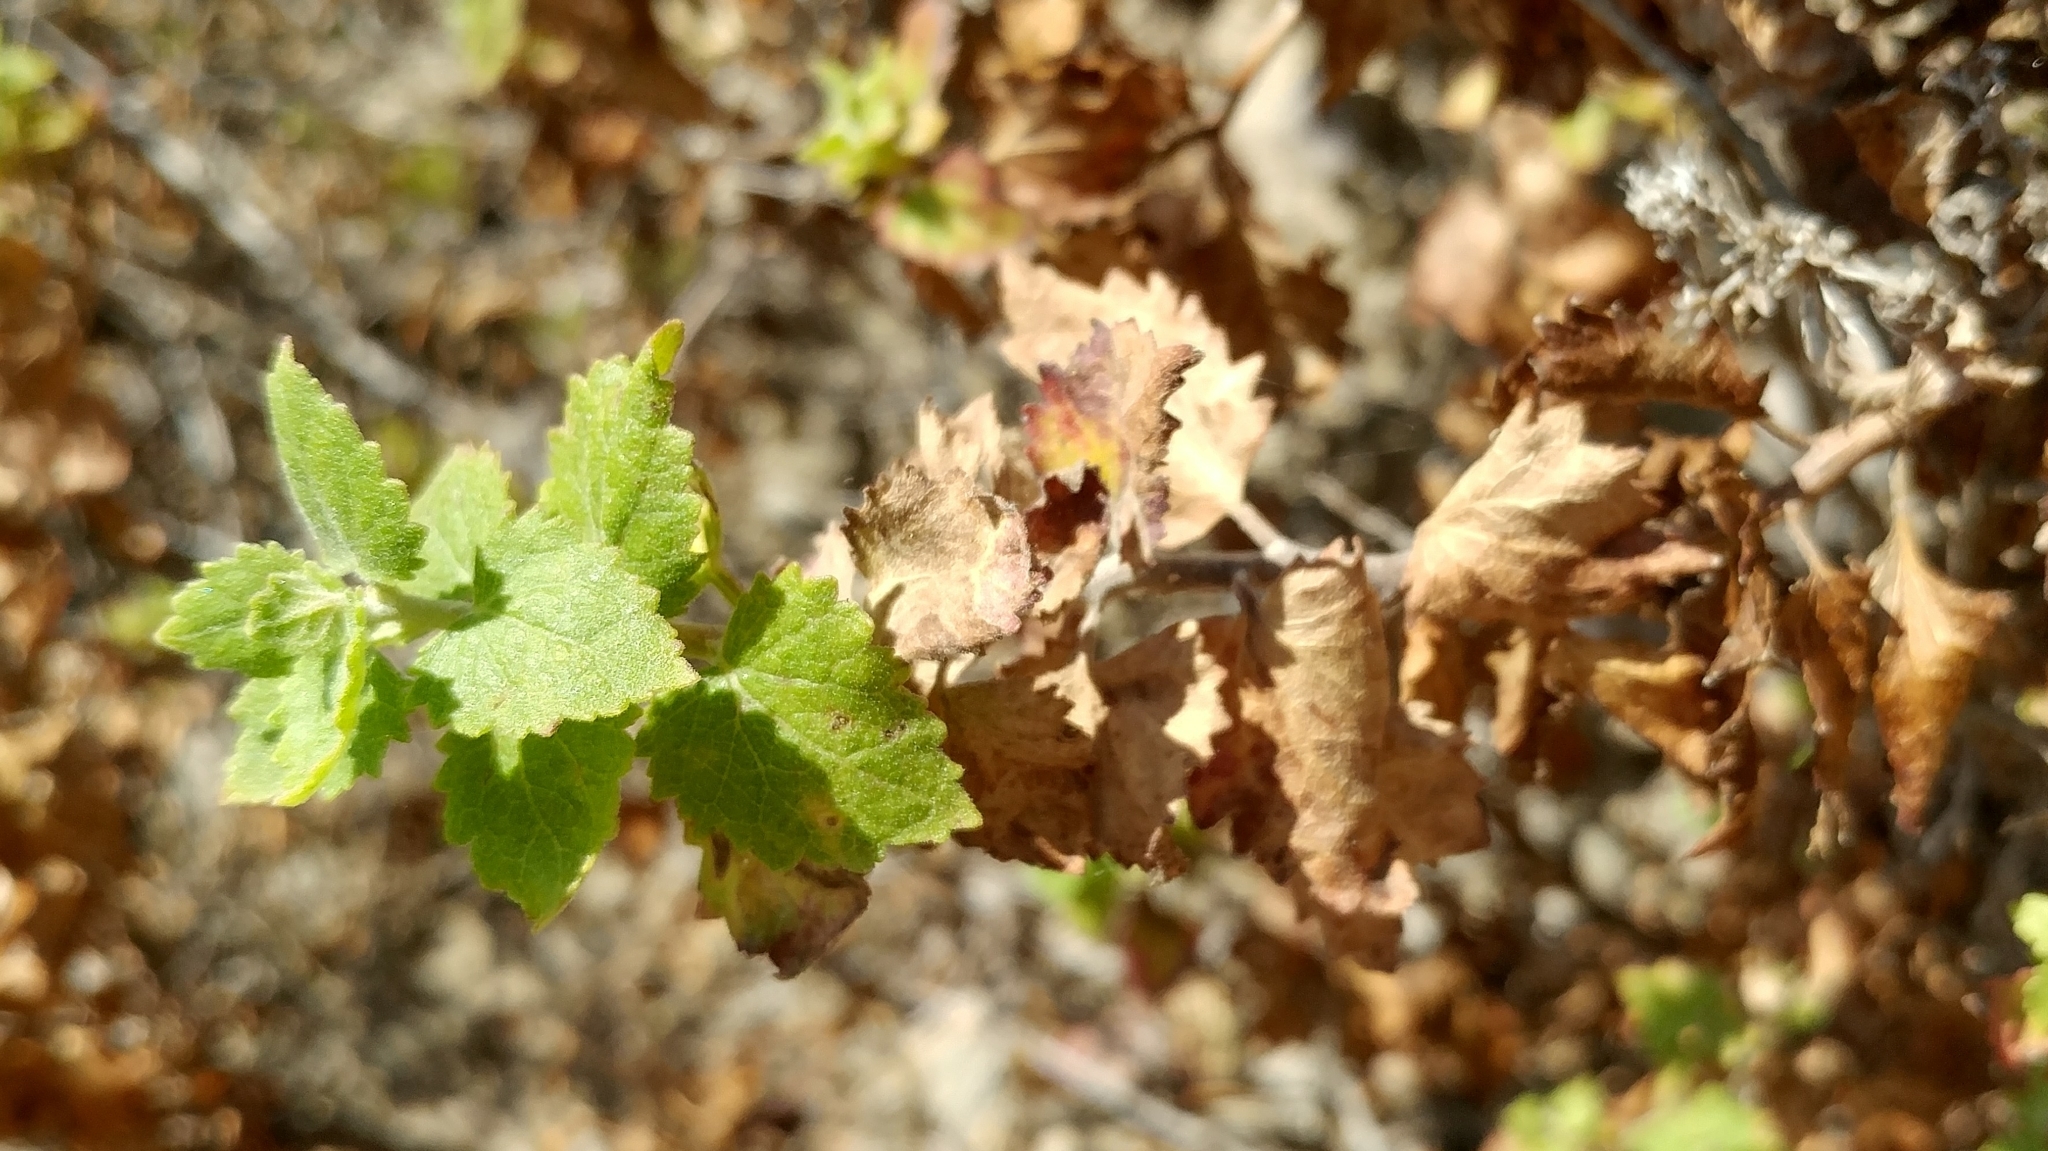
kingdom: Plantae
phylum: Tracheophyta
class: Magnoliopsida
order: Asterales
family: Asteraceae
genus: Brickellia
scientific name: Brickellia californica
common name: California brickellbush
